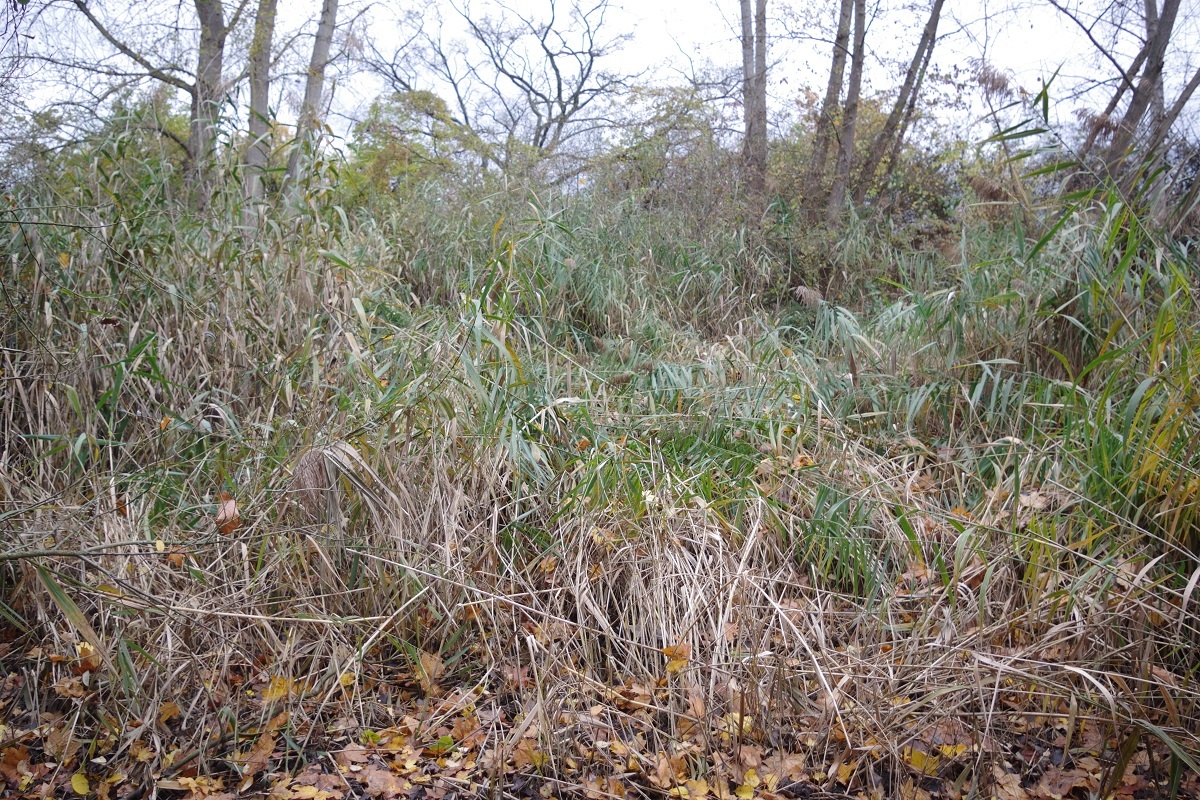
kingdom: Plantae
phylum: Tracheophyta
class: Liliopsida
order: Poales
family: Poaceae
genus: Phragmites
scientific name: Phragmites australis
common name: Common reed
